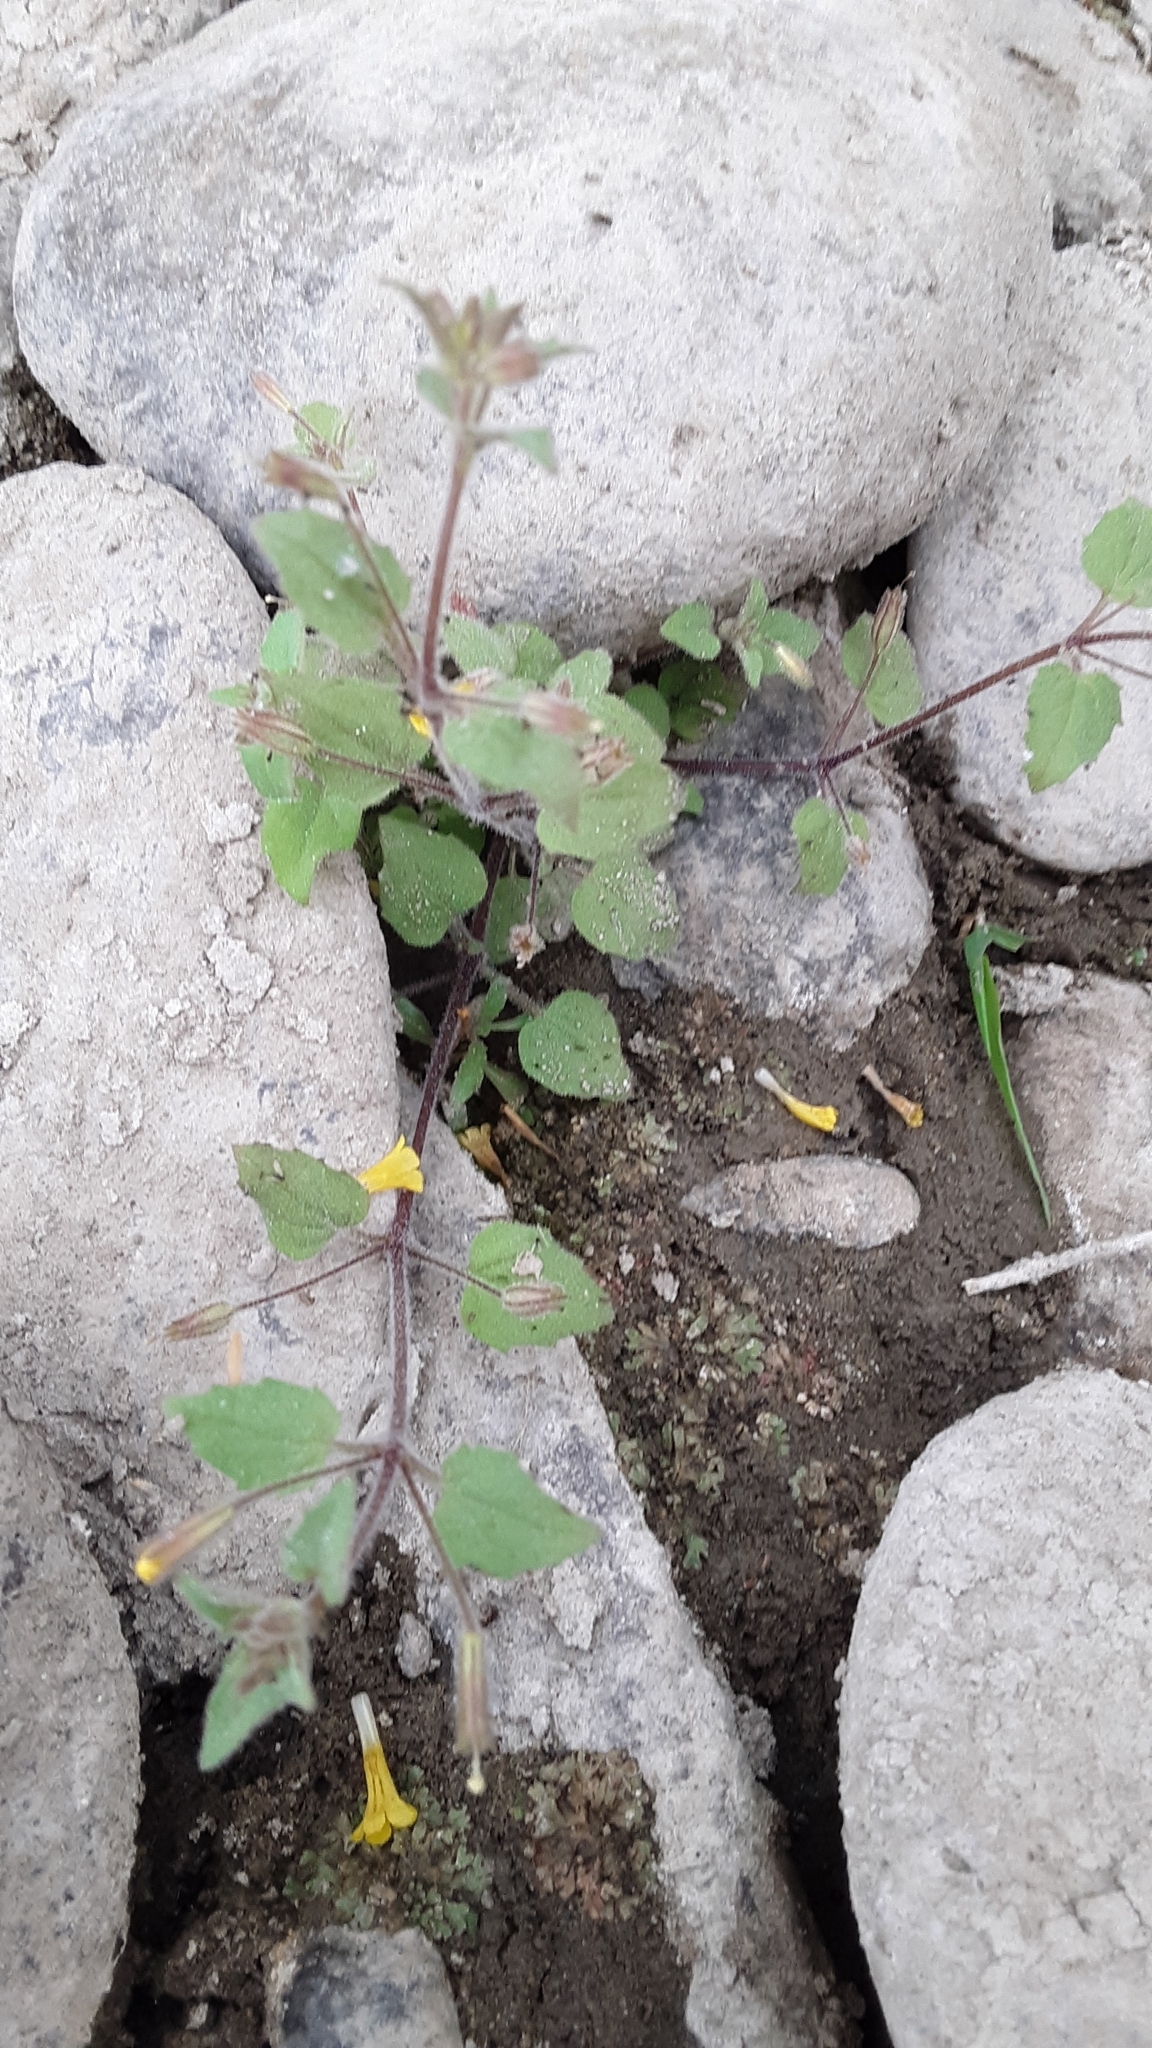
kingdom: Plantae
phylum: Tracheophyta
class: Magnoliopsida
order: Lamiales
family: Phrymaceae
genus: Erythranthe
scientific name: Erythranthe floribunda
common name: Floriferous monkeyflower
